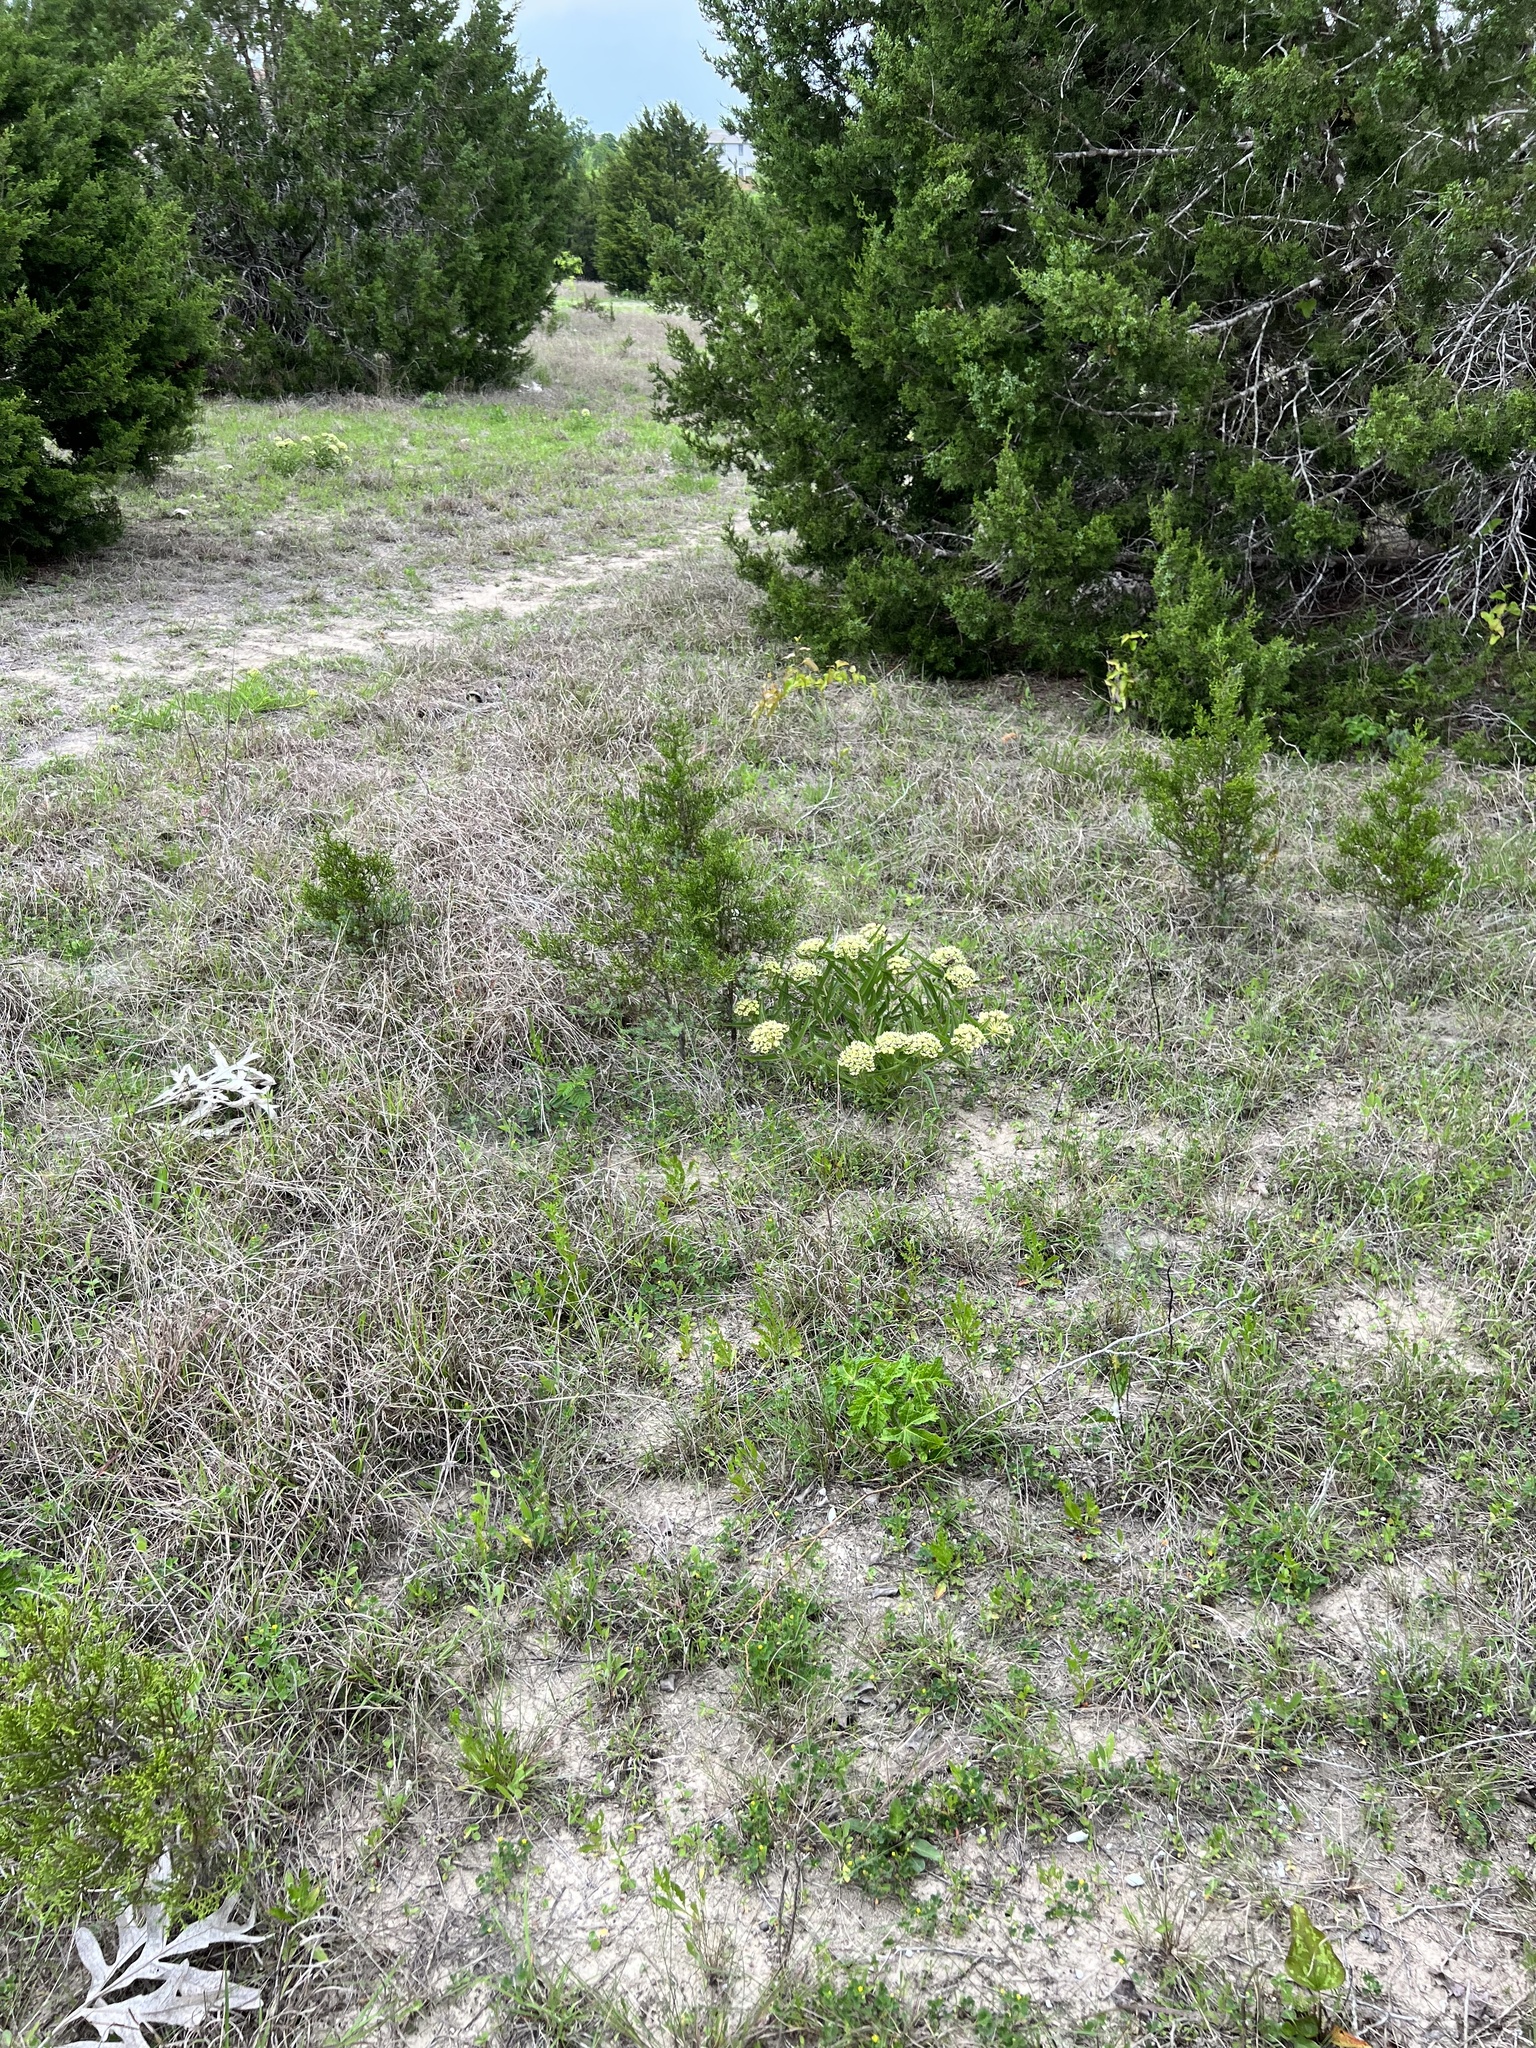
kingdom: Plantae
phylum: Tracheophyta
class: Magnoliopsida
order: Gentianales
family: Apocynaceae
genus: Asclepias
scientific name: Asclepias asperula
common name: Antelope horns
